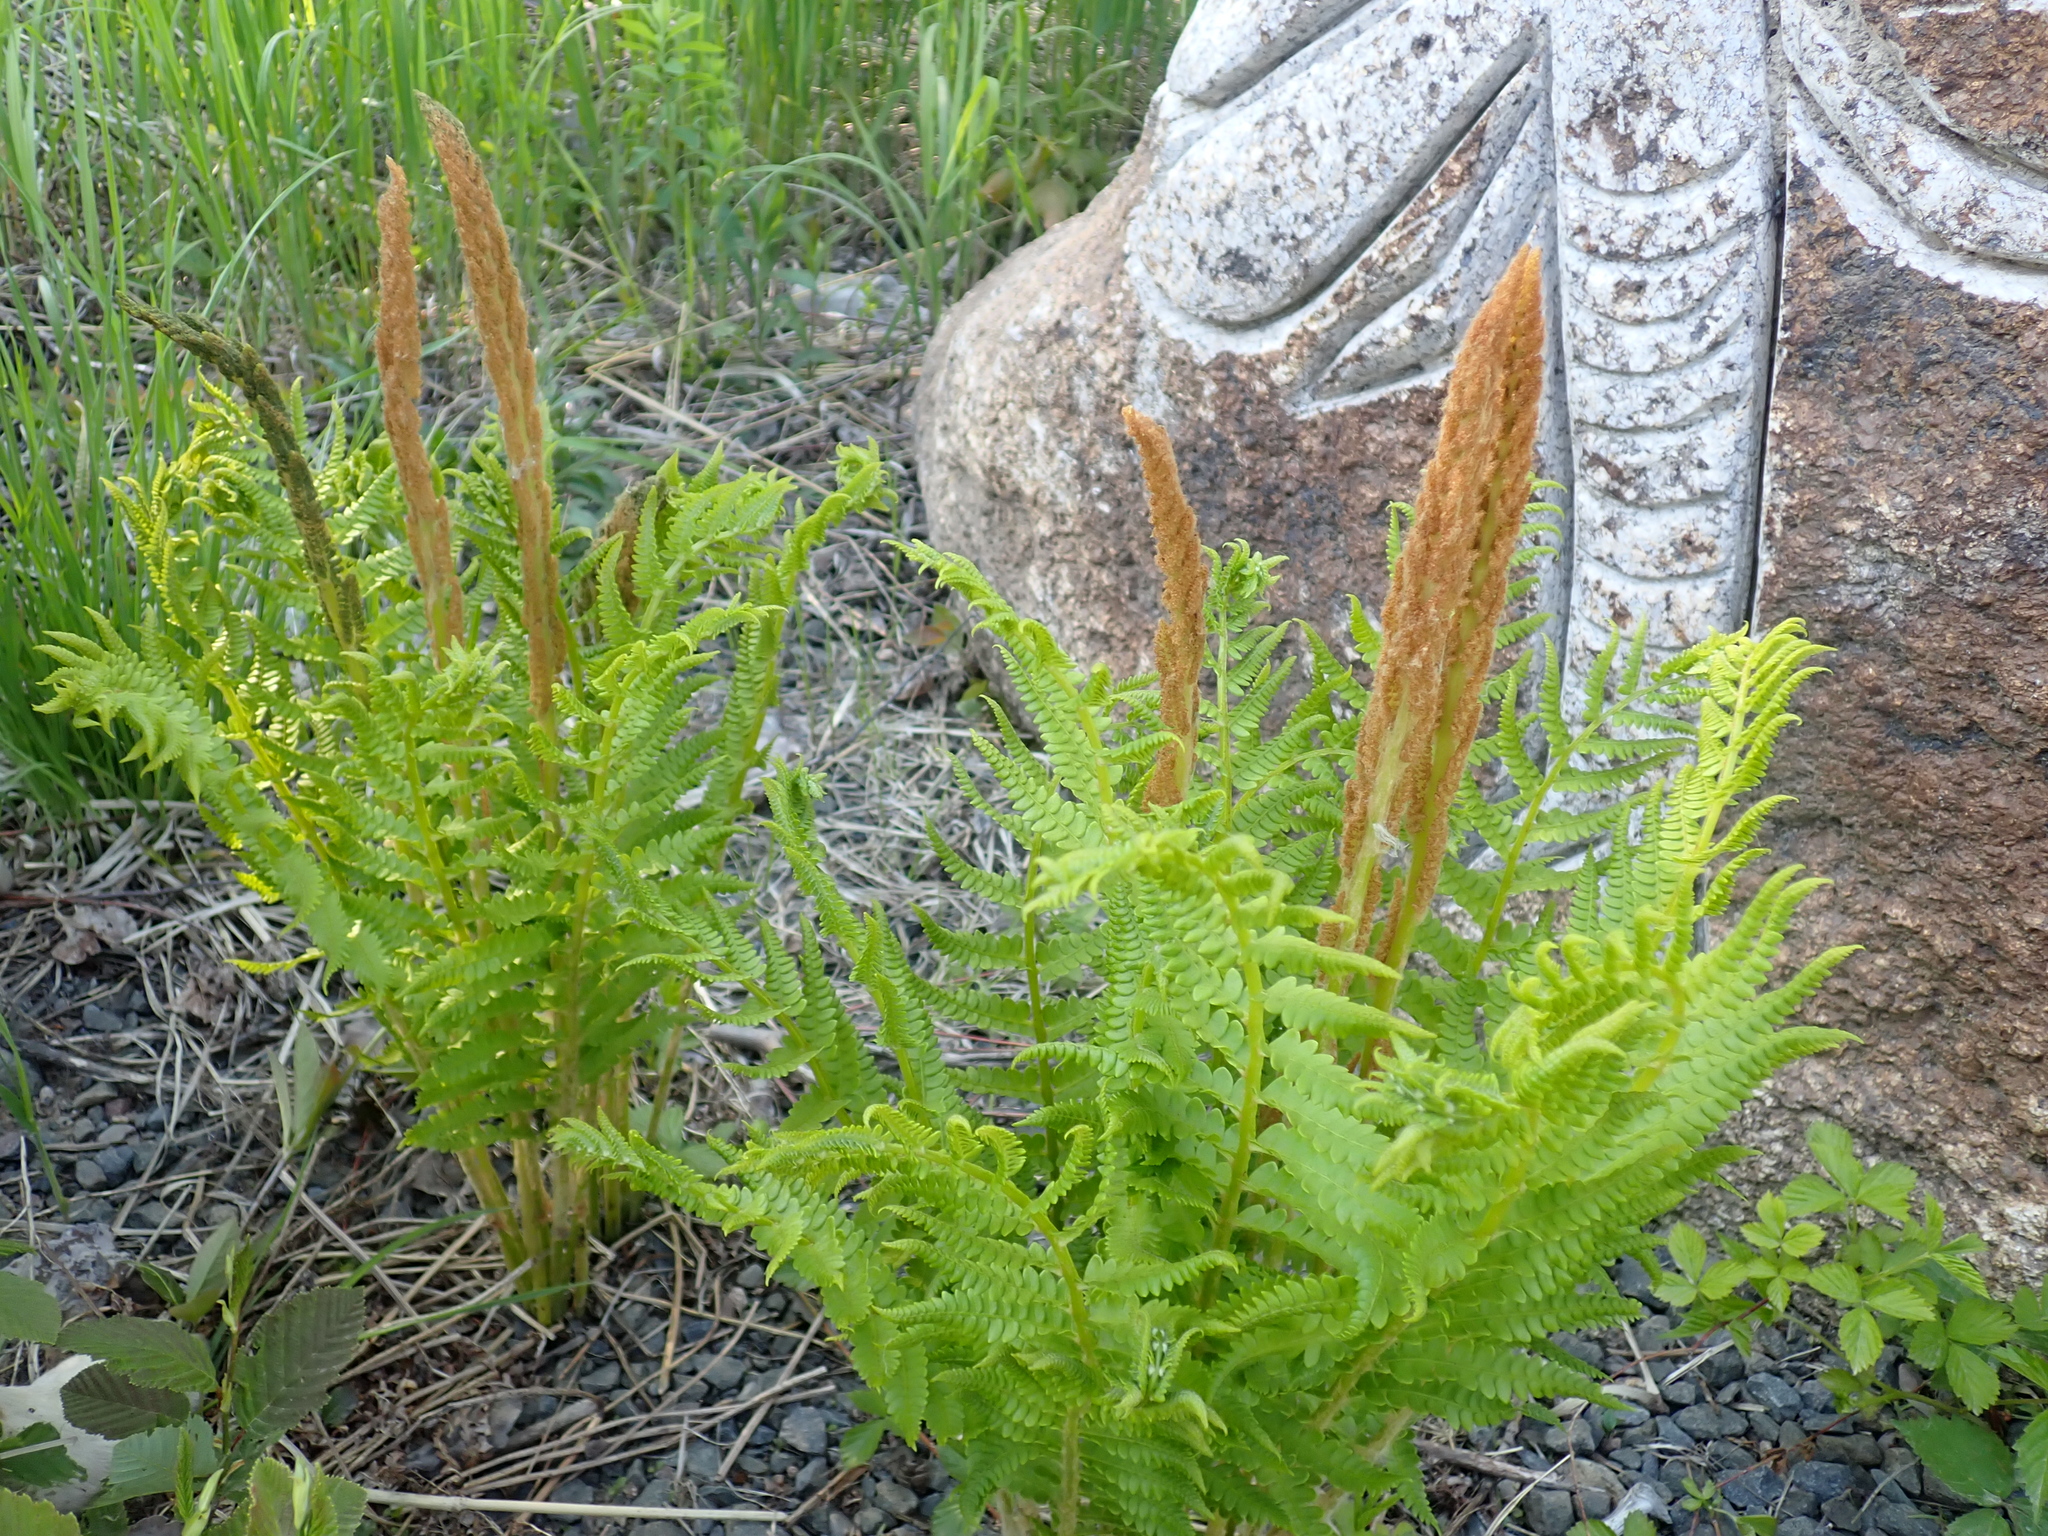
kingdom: Plantae
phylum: Tracheophyta
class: Polypodiopsida
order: Osmundales
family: Osmundaceae
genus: Osmundastrum
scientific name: Osmundastrum cinnamomeum
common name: Cinnamon fern
